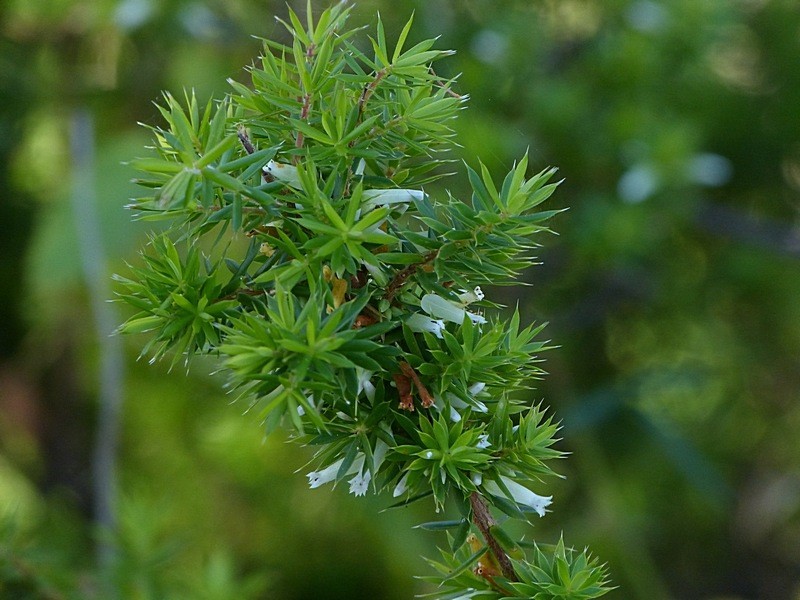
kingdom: Plantae
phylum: Tracheophyta
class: Magnoliopsida
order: Ericales
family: Ericaceae
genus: Styphelia
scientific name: Styphelia sieberi
